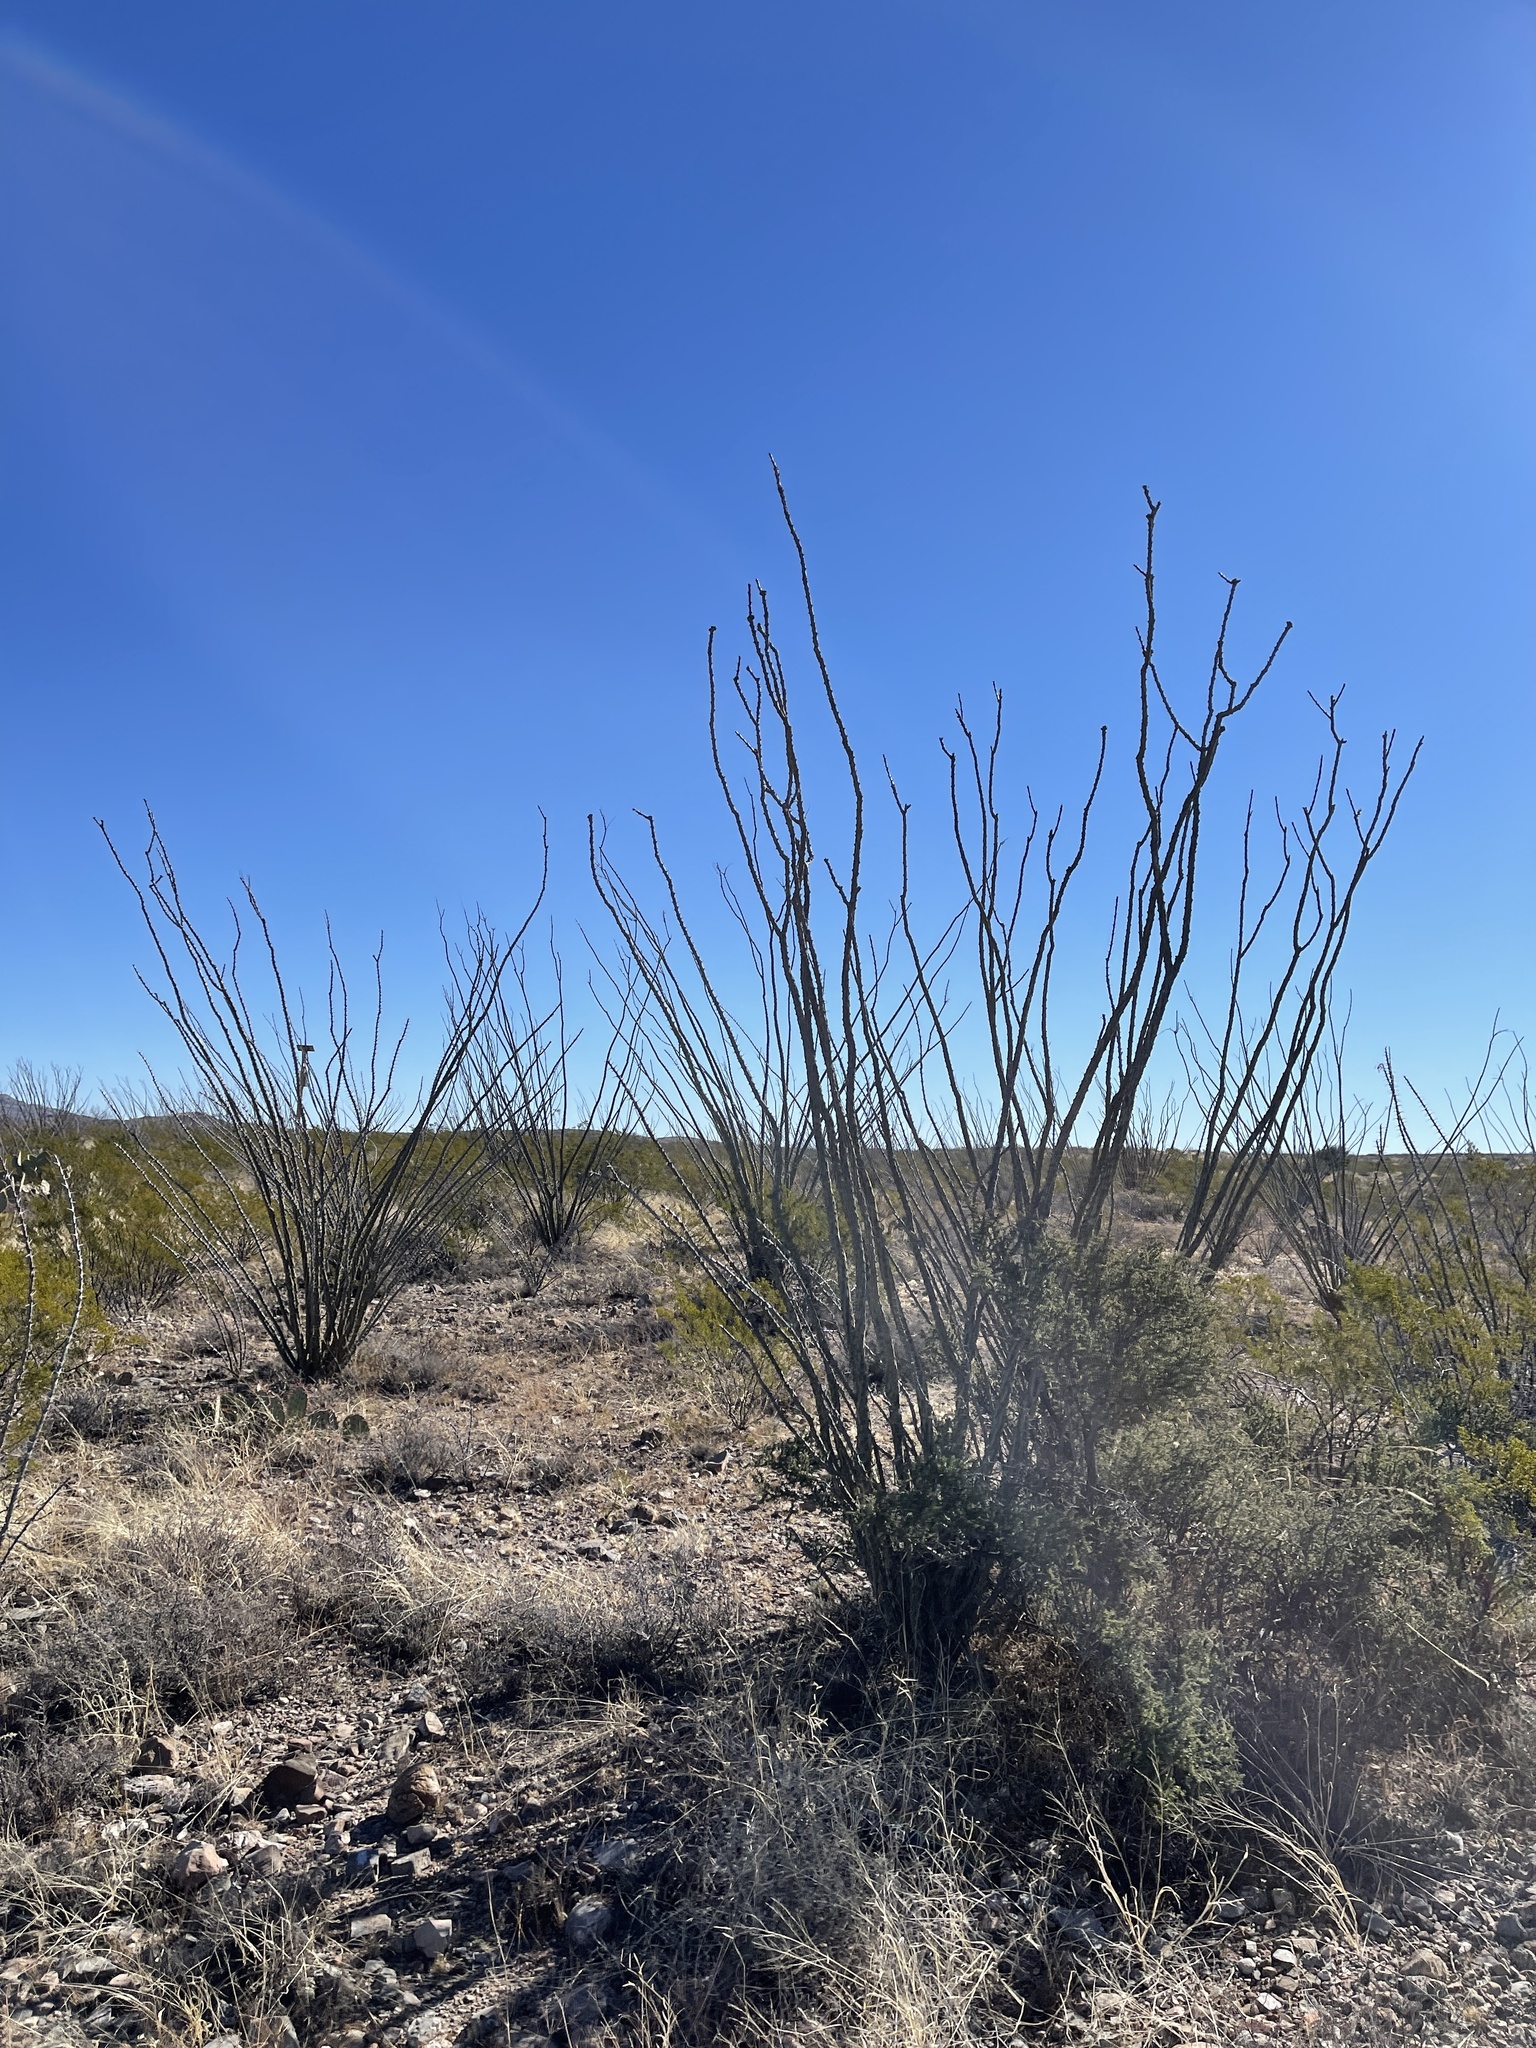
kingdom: Plantae
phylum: Tracheophyta
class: Magnoliopsida
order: Ericales
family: Fouquieriaceae
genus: Fouquieria
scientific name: Fouquieria splendens
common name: Vine-cactus
